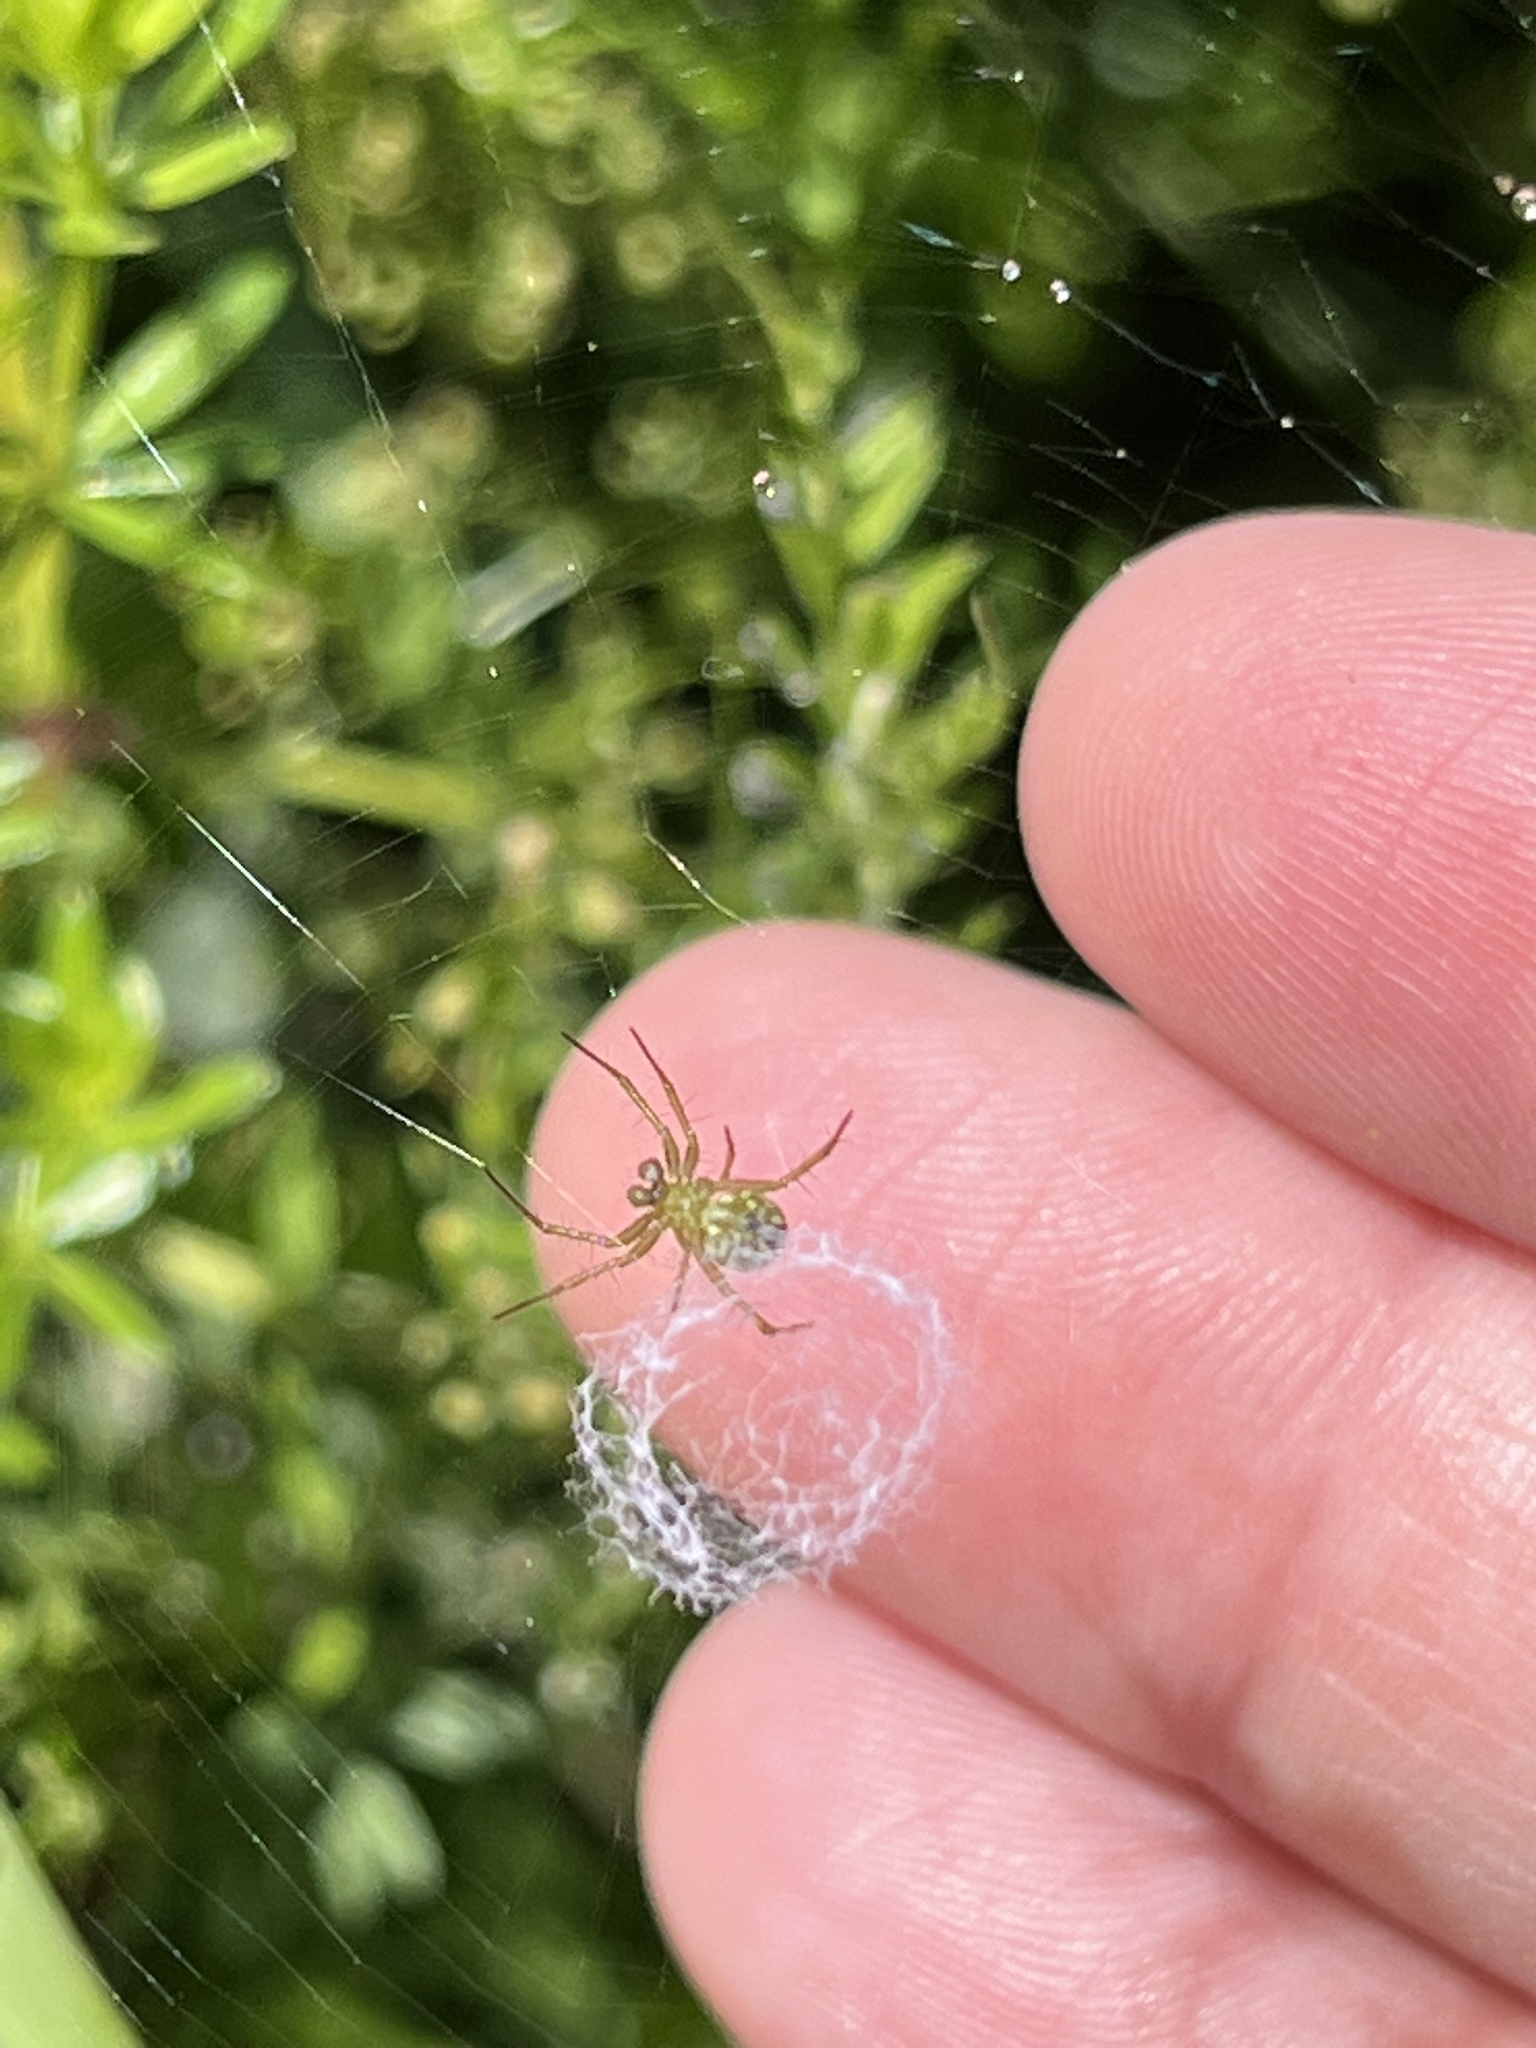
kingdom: Animalia
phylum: Arthropoda
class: Arachnida
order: Araneae
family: Araneidae
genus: Mangora
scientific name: Mangora gibberosa
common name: Lined orbweaver
